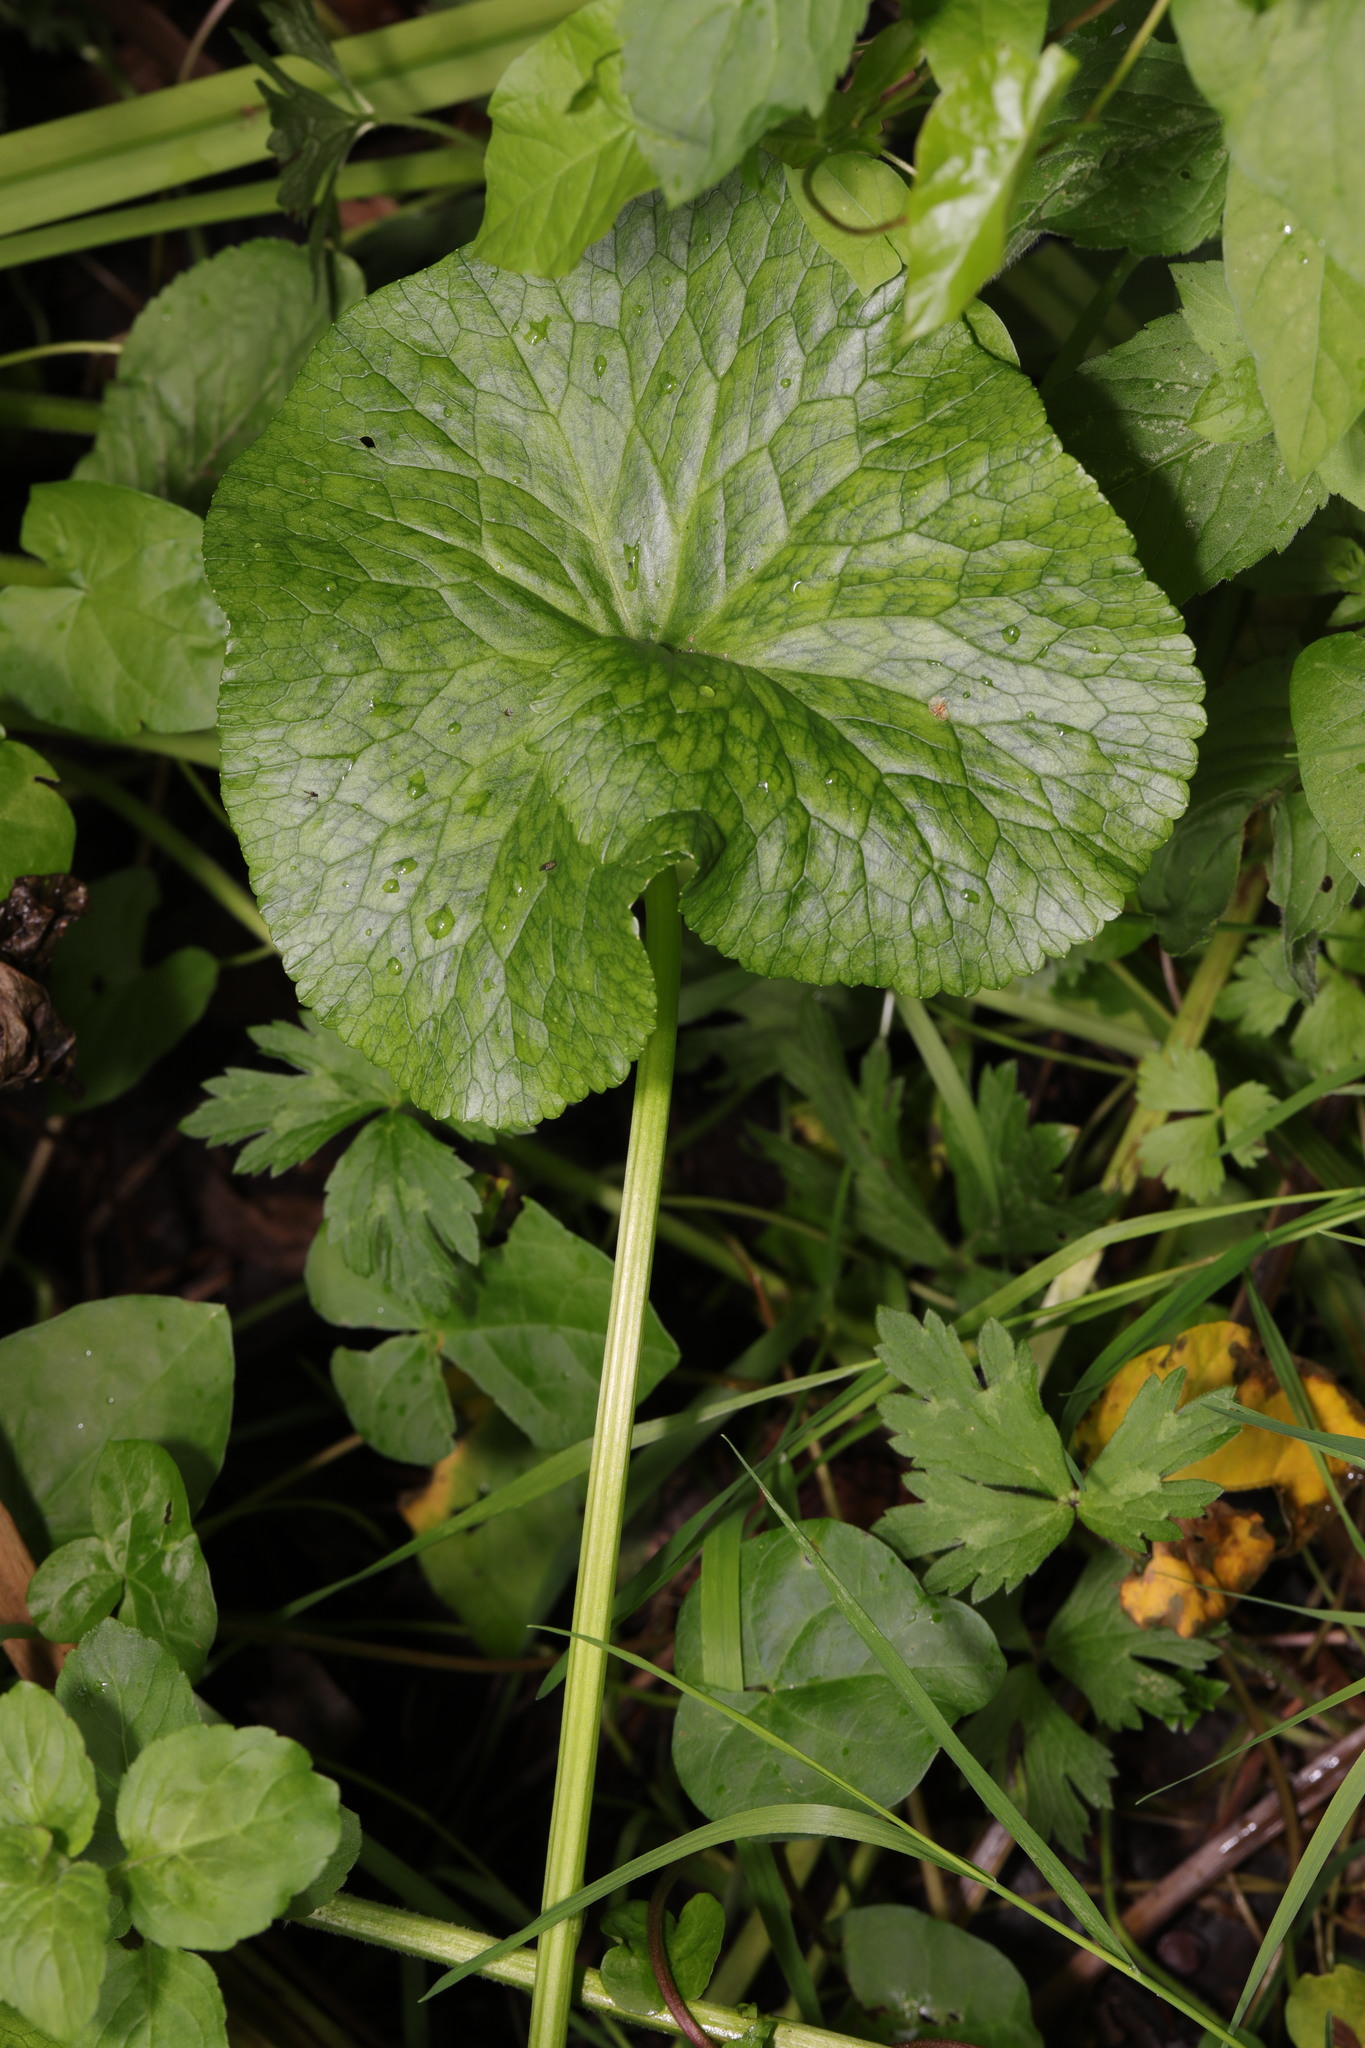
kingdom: Plantae
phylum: Tracheophyta
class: Magnoliopsida
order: Ranunculales
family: Ranunculaceae
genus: Caltha
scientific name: Caltha palustris
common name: Marsh marigold
